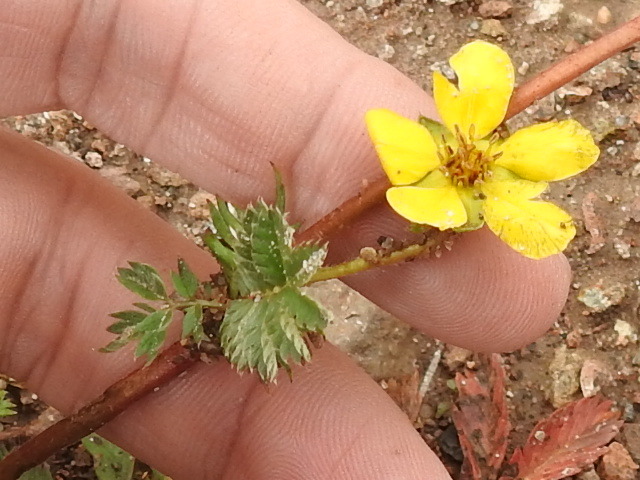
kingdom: Plantae
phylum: Tracheophyta
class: Magnoliopsida
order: Rosales
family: Rosaceae
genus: Argentina
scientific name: Argentina anserina
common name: Common silverweed
